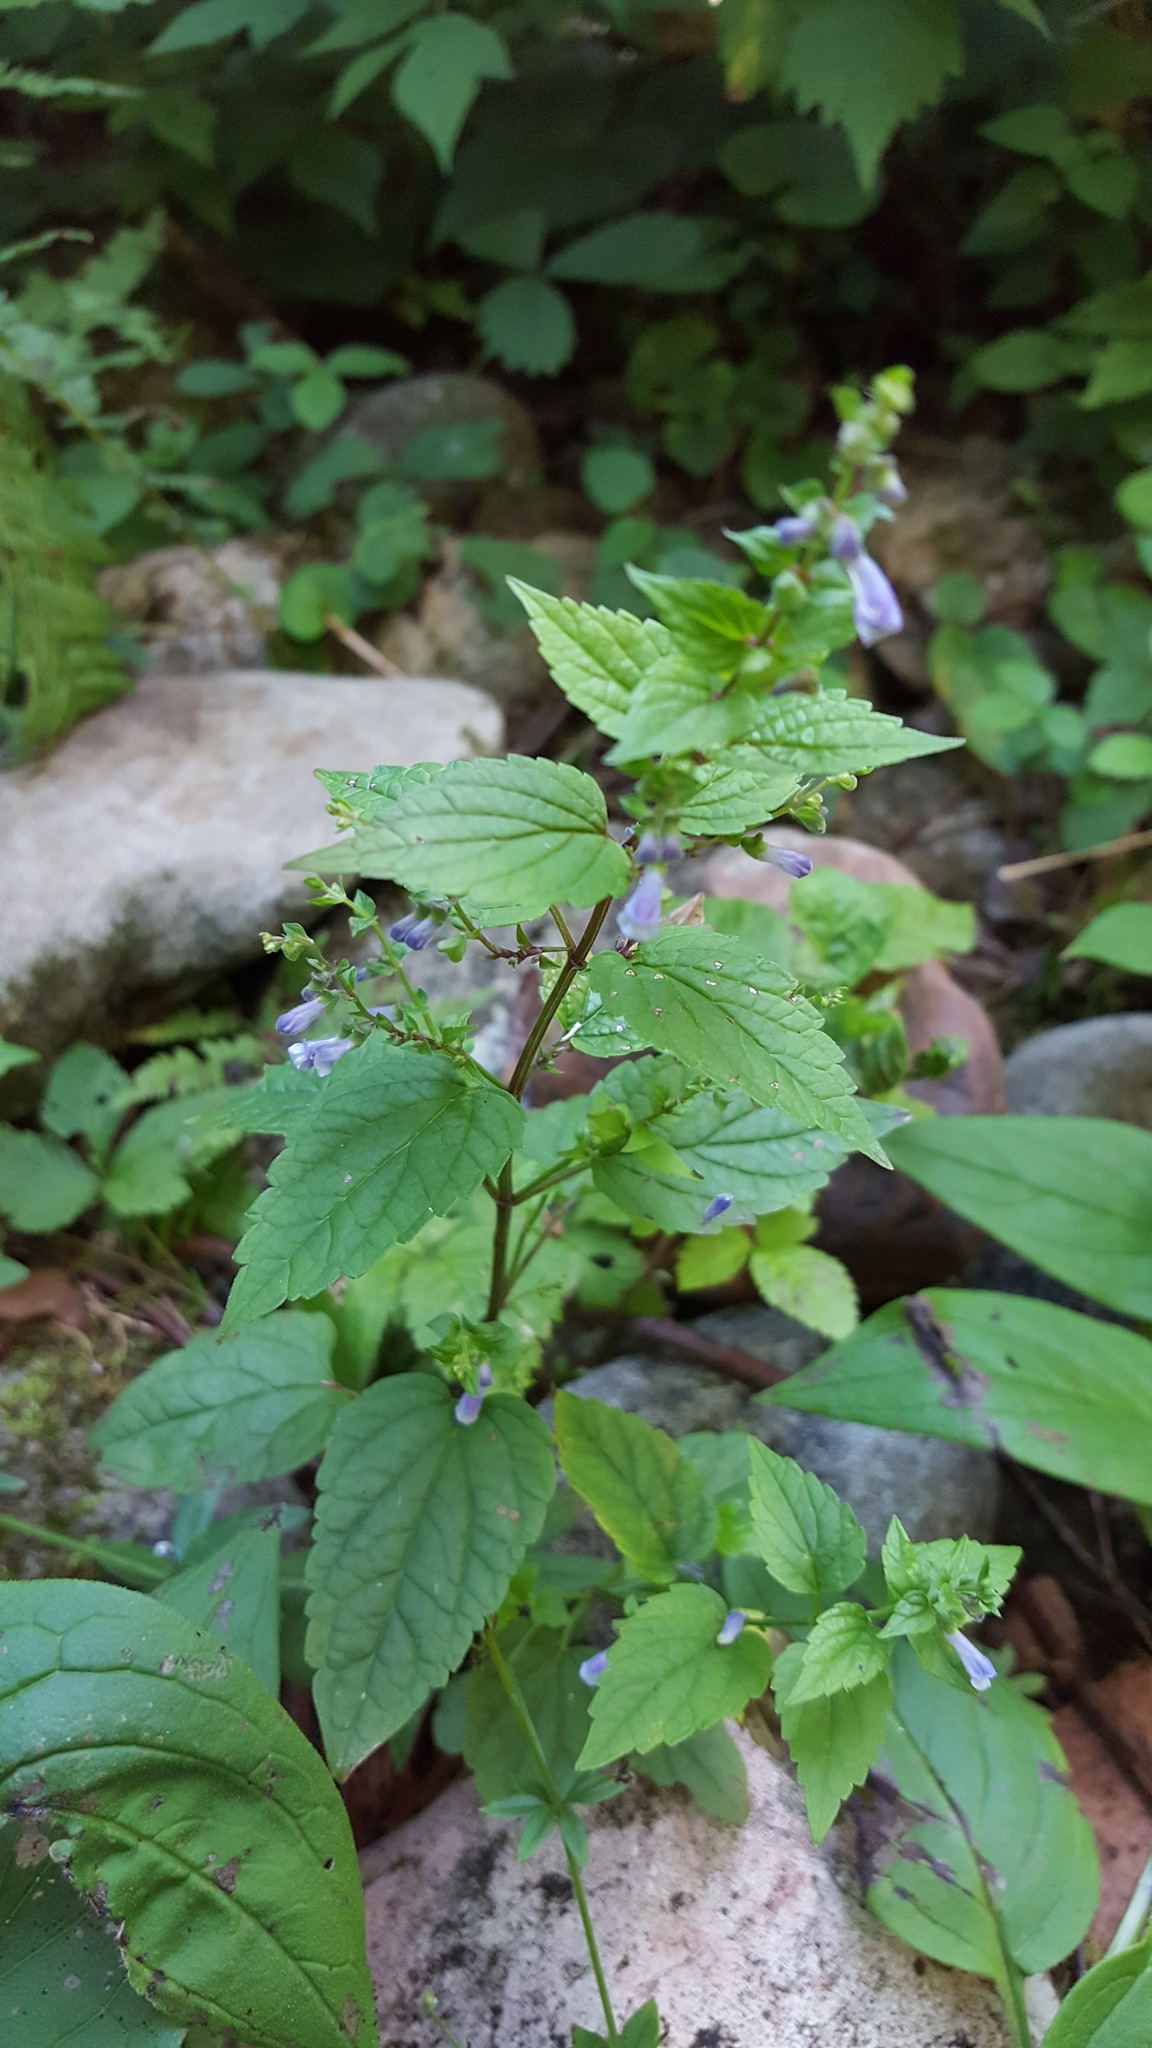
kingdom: Plantae
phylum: Tracheophyta
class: Magnoliopsida
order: Lamiales
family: Lamiaceae
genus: Scutellaria
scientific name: Scutellaria lateriflora
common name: Blue skullcap
